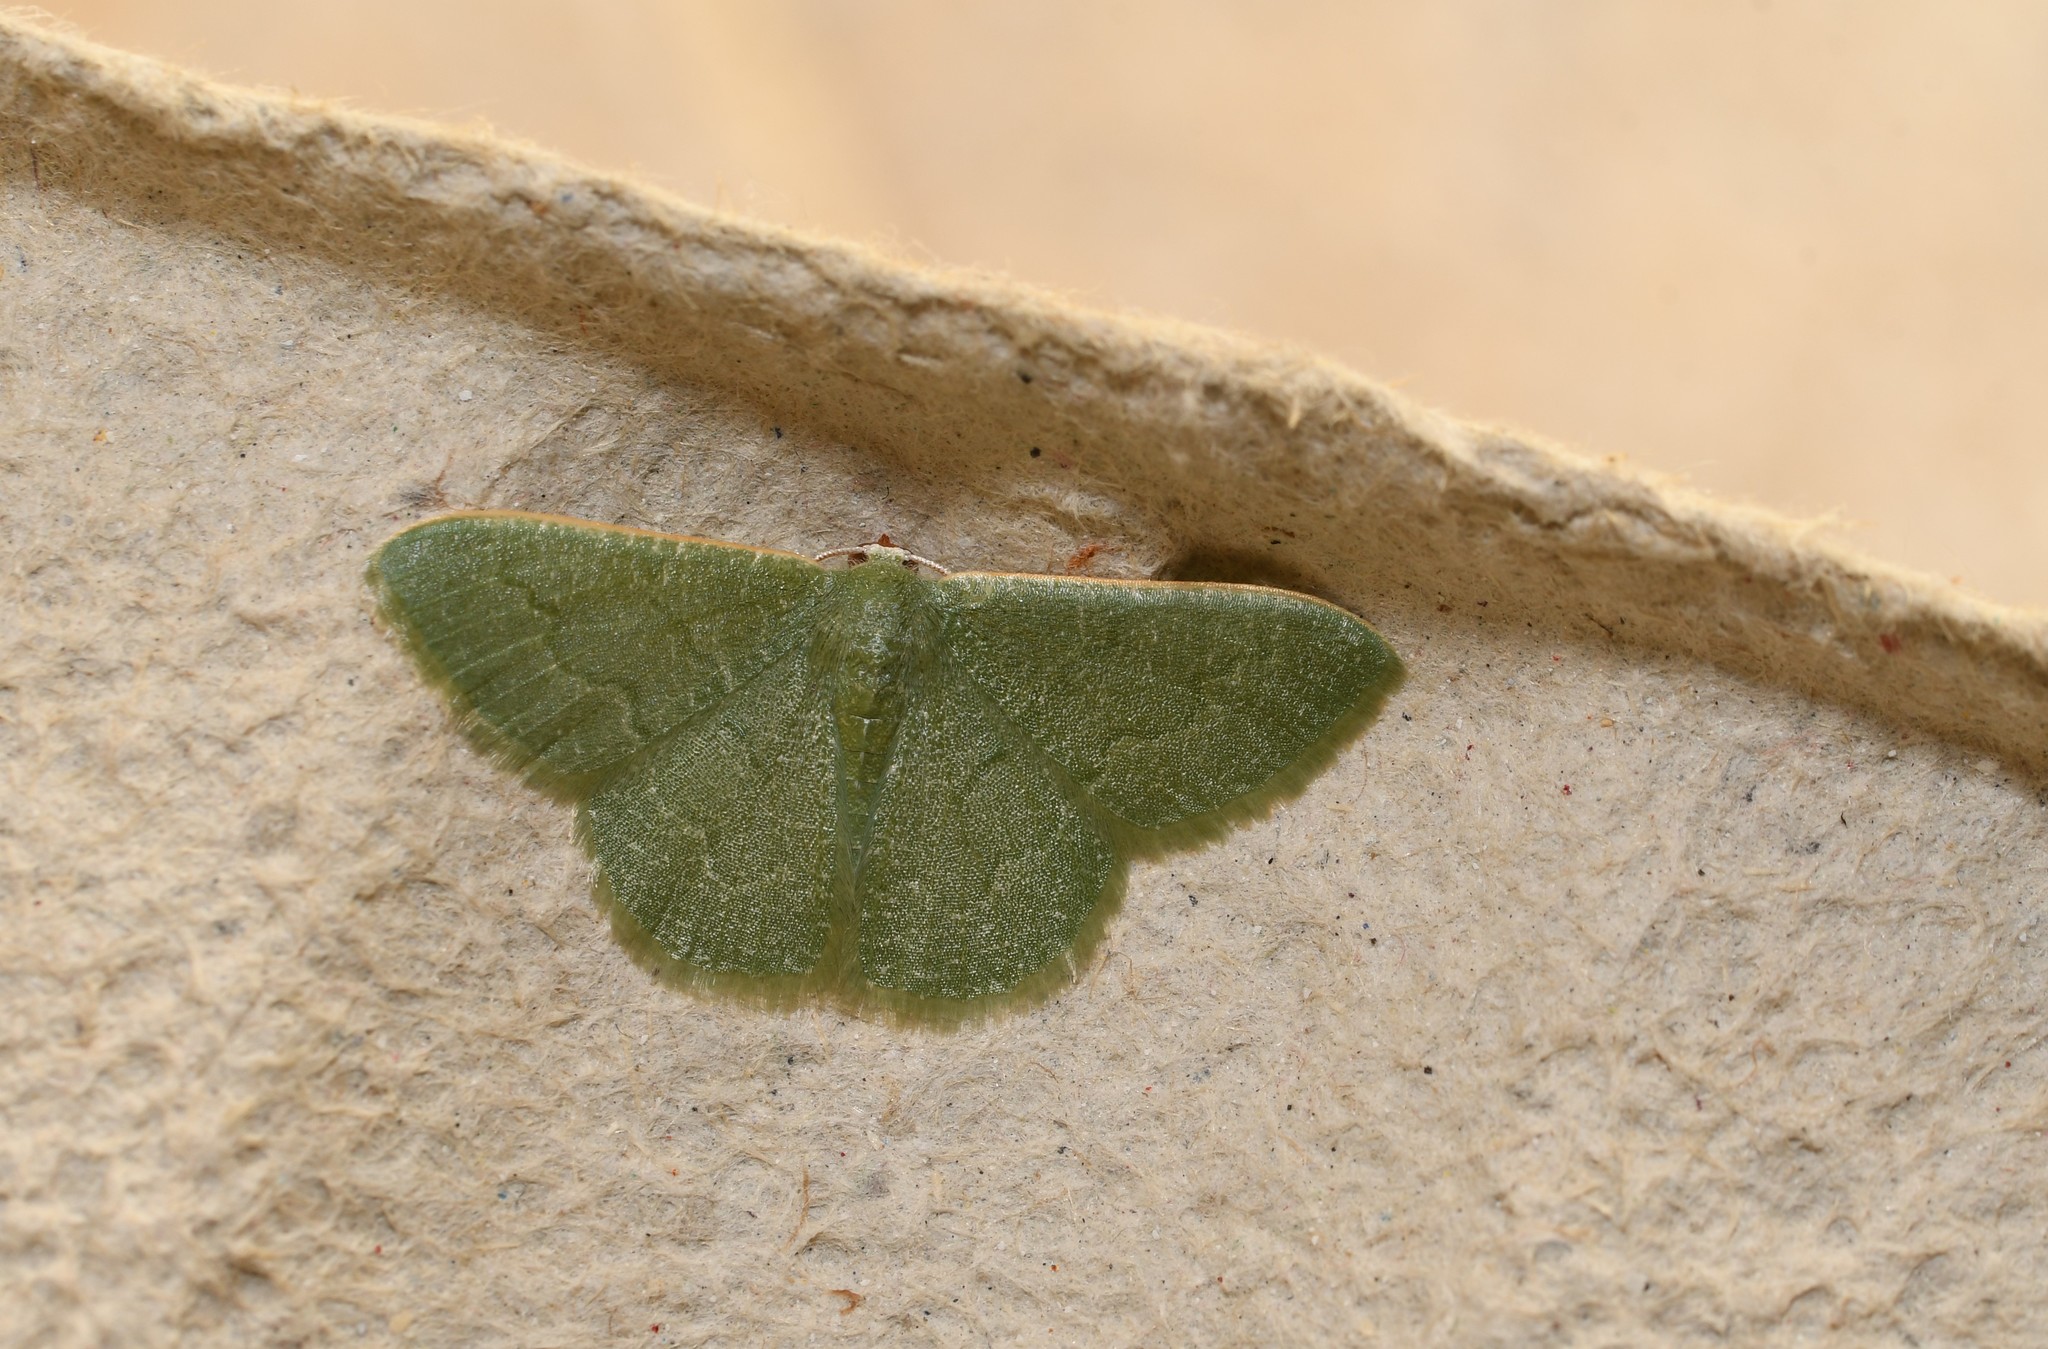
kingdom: Animalia
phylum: Arthropoda
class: Insecta
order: Lepidoptera
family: Geometridae
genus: Phaiogramma
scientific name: Phaiogramma faustinata
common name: Millière's emerald
